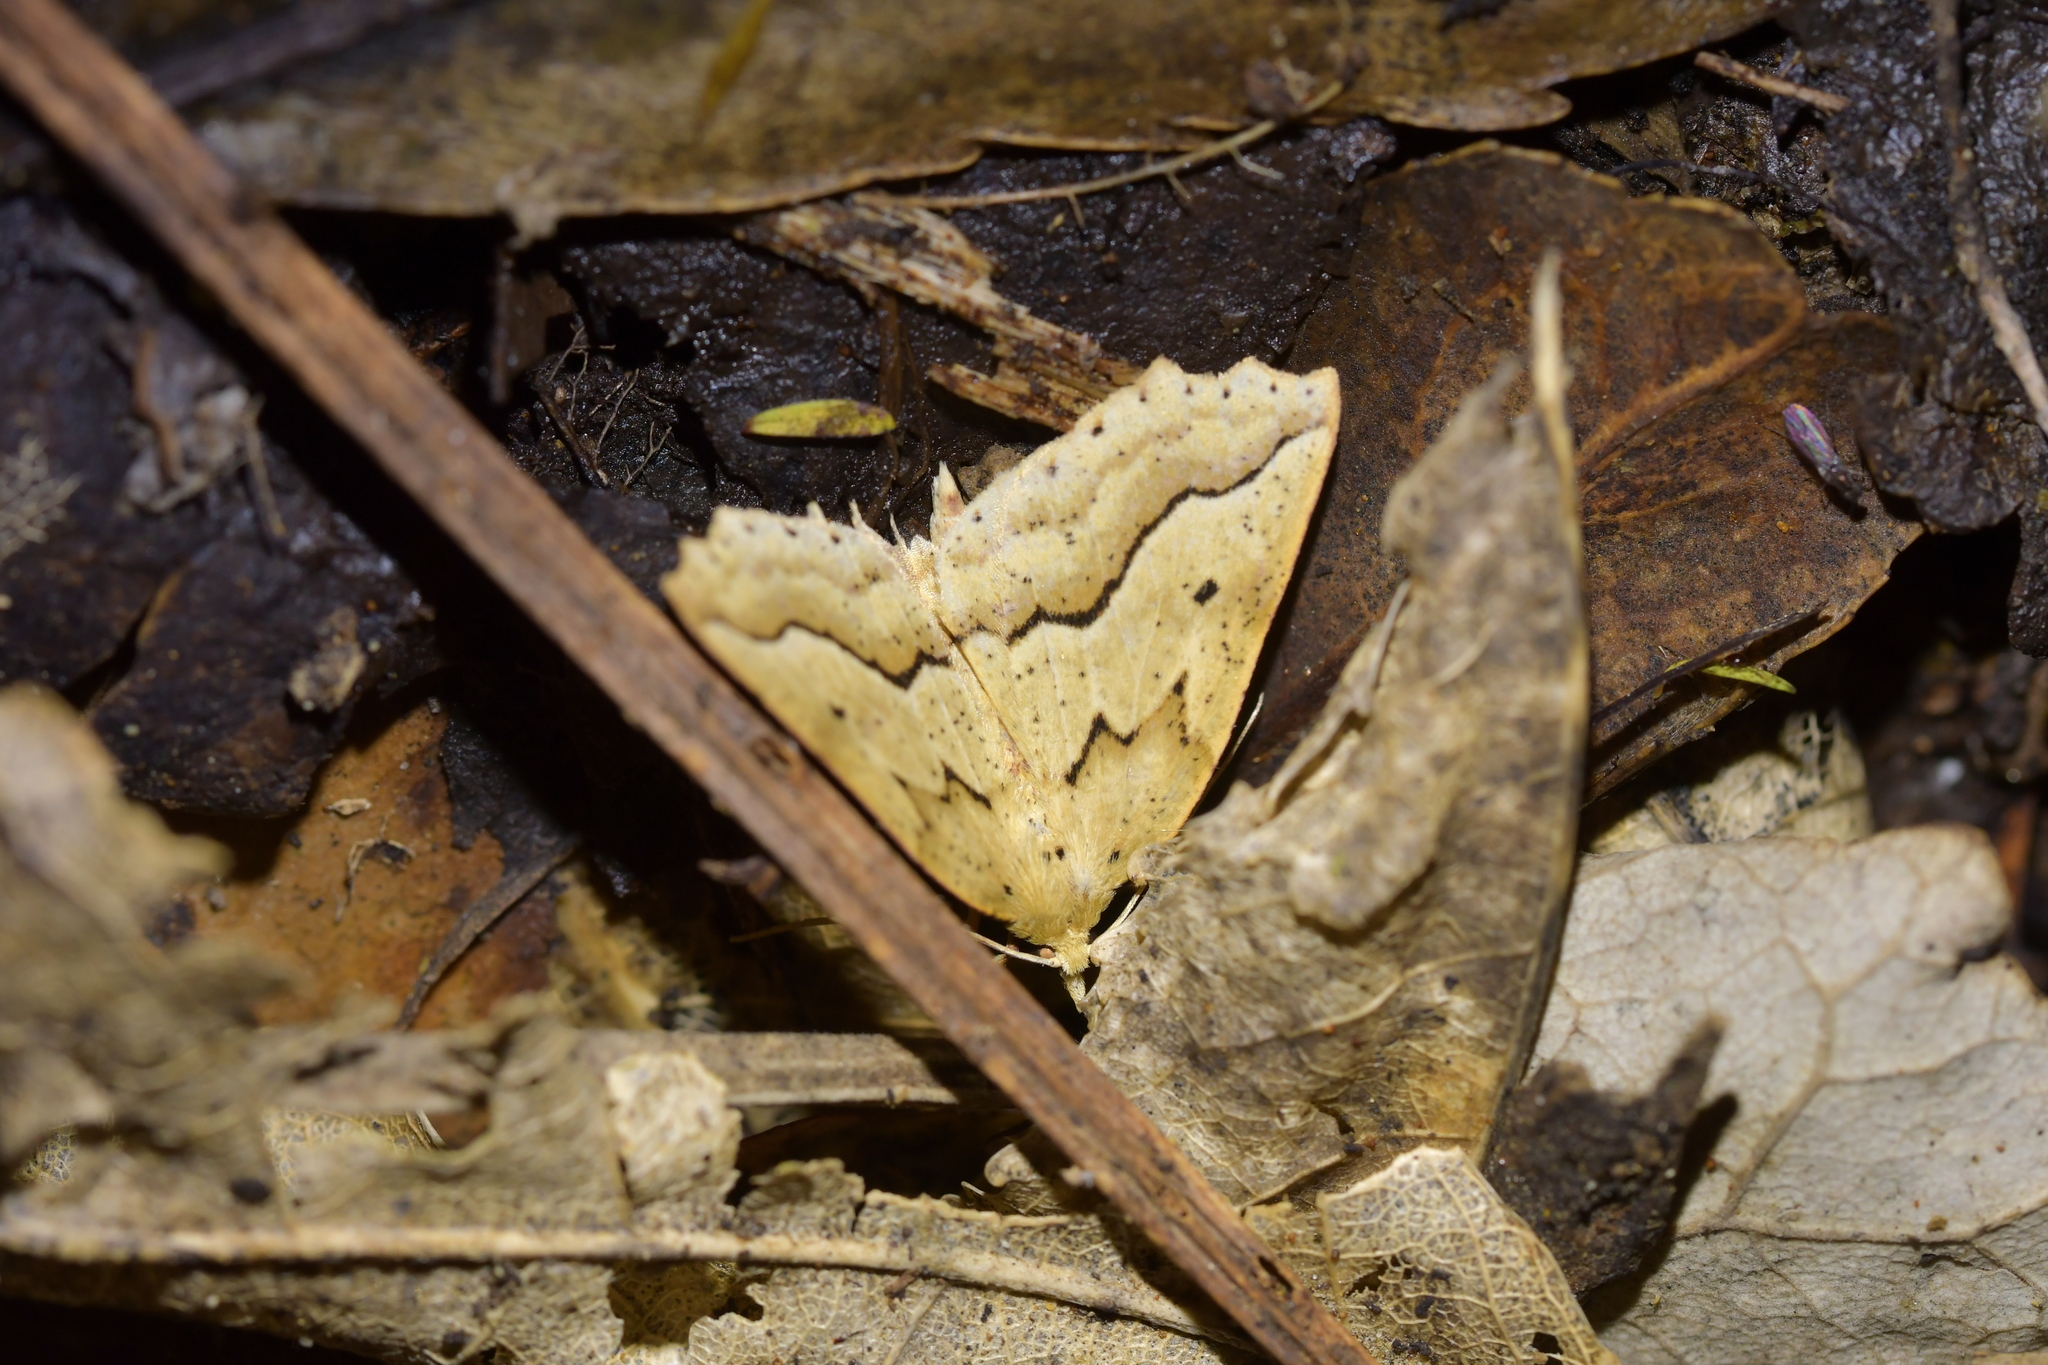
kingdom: Animalia
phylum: Arthropoda
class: Insecta
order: Lepidoptera
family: Geometridae
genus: Ischalis
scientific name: Ischalis variabilis
